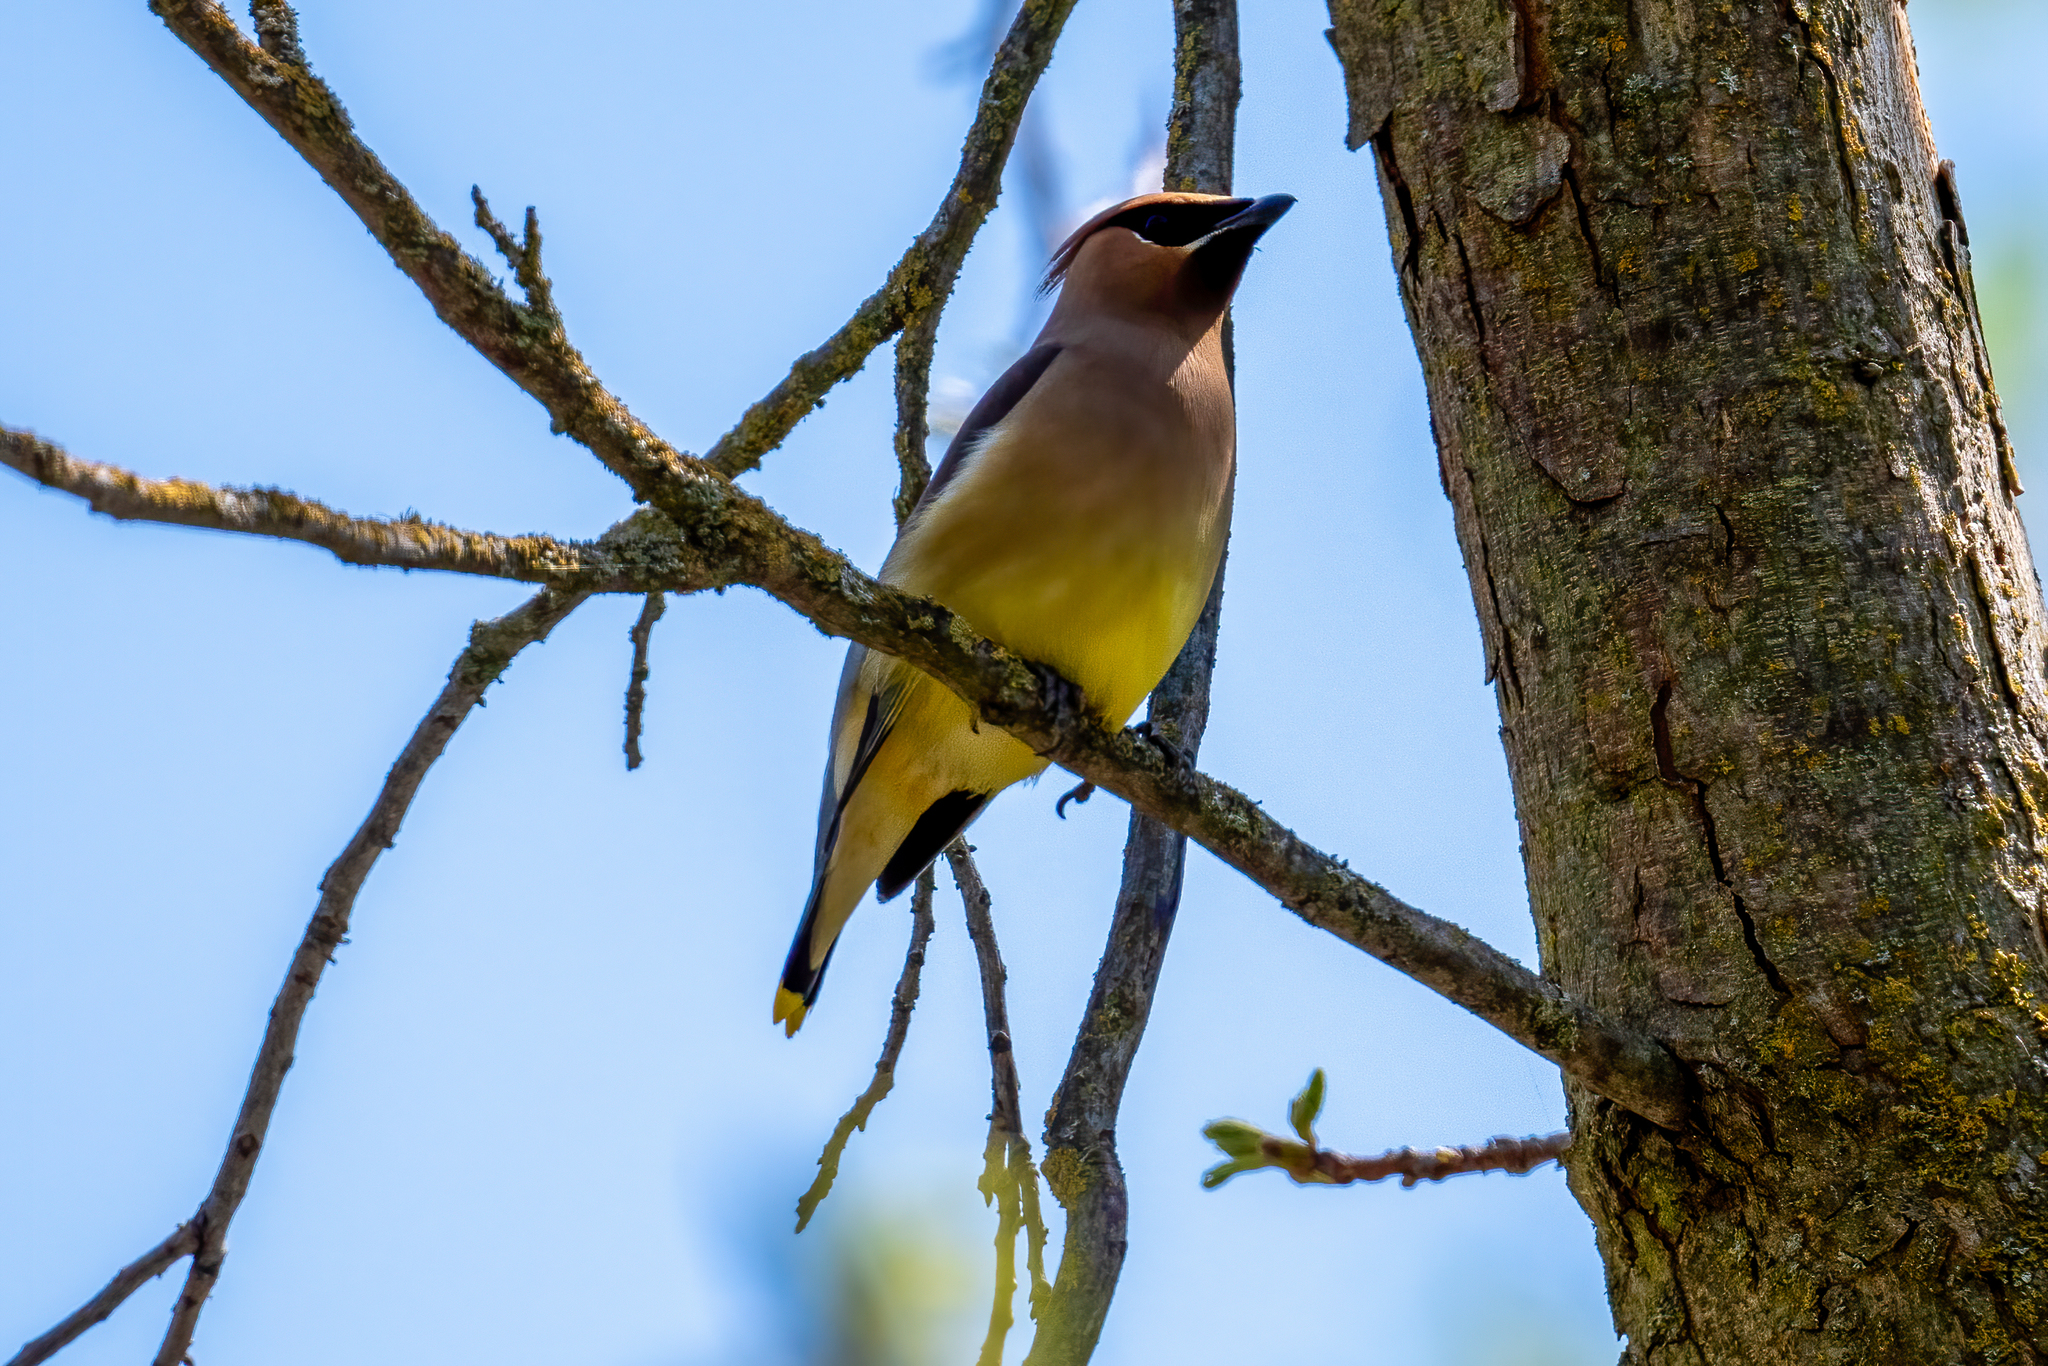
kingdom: Animalia
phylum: Chordata
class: Aves
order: Passeriformes
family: Bombycillidae
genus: Bombycilla
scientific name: Bombycilla cedrorum
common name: Cedar waxwing
